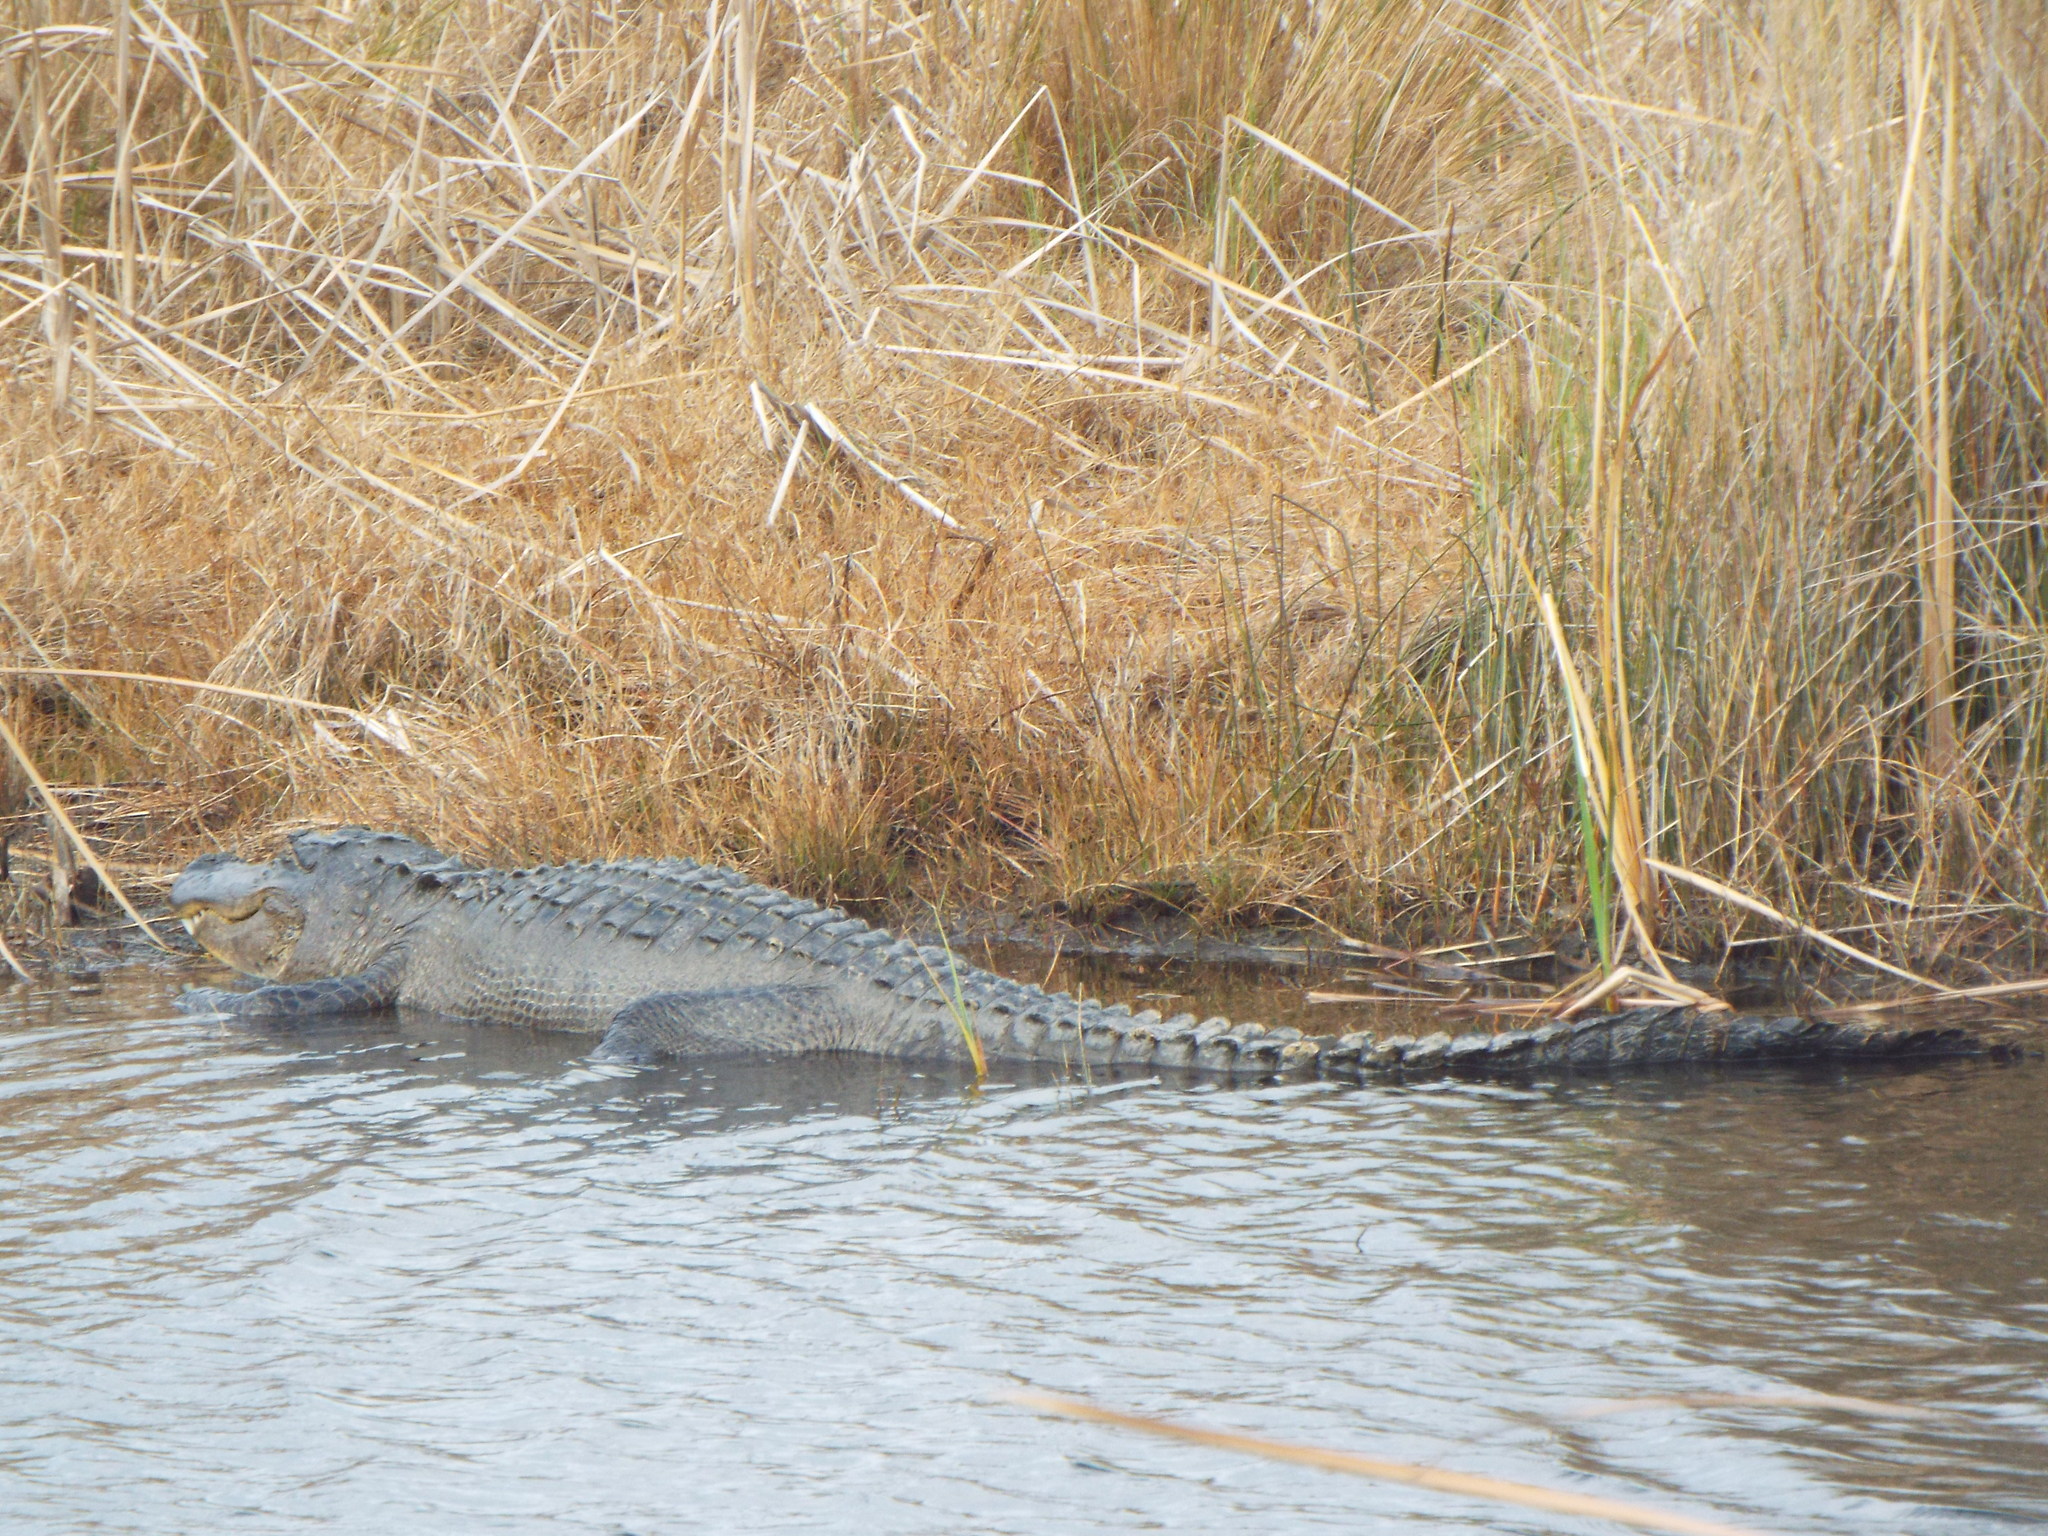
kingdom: Animalia
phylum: Chordata
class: Crocodylia
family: Alligatoridae
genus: Alligator
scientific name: Alligator mississippiensis
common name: American alligator
